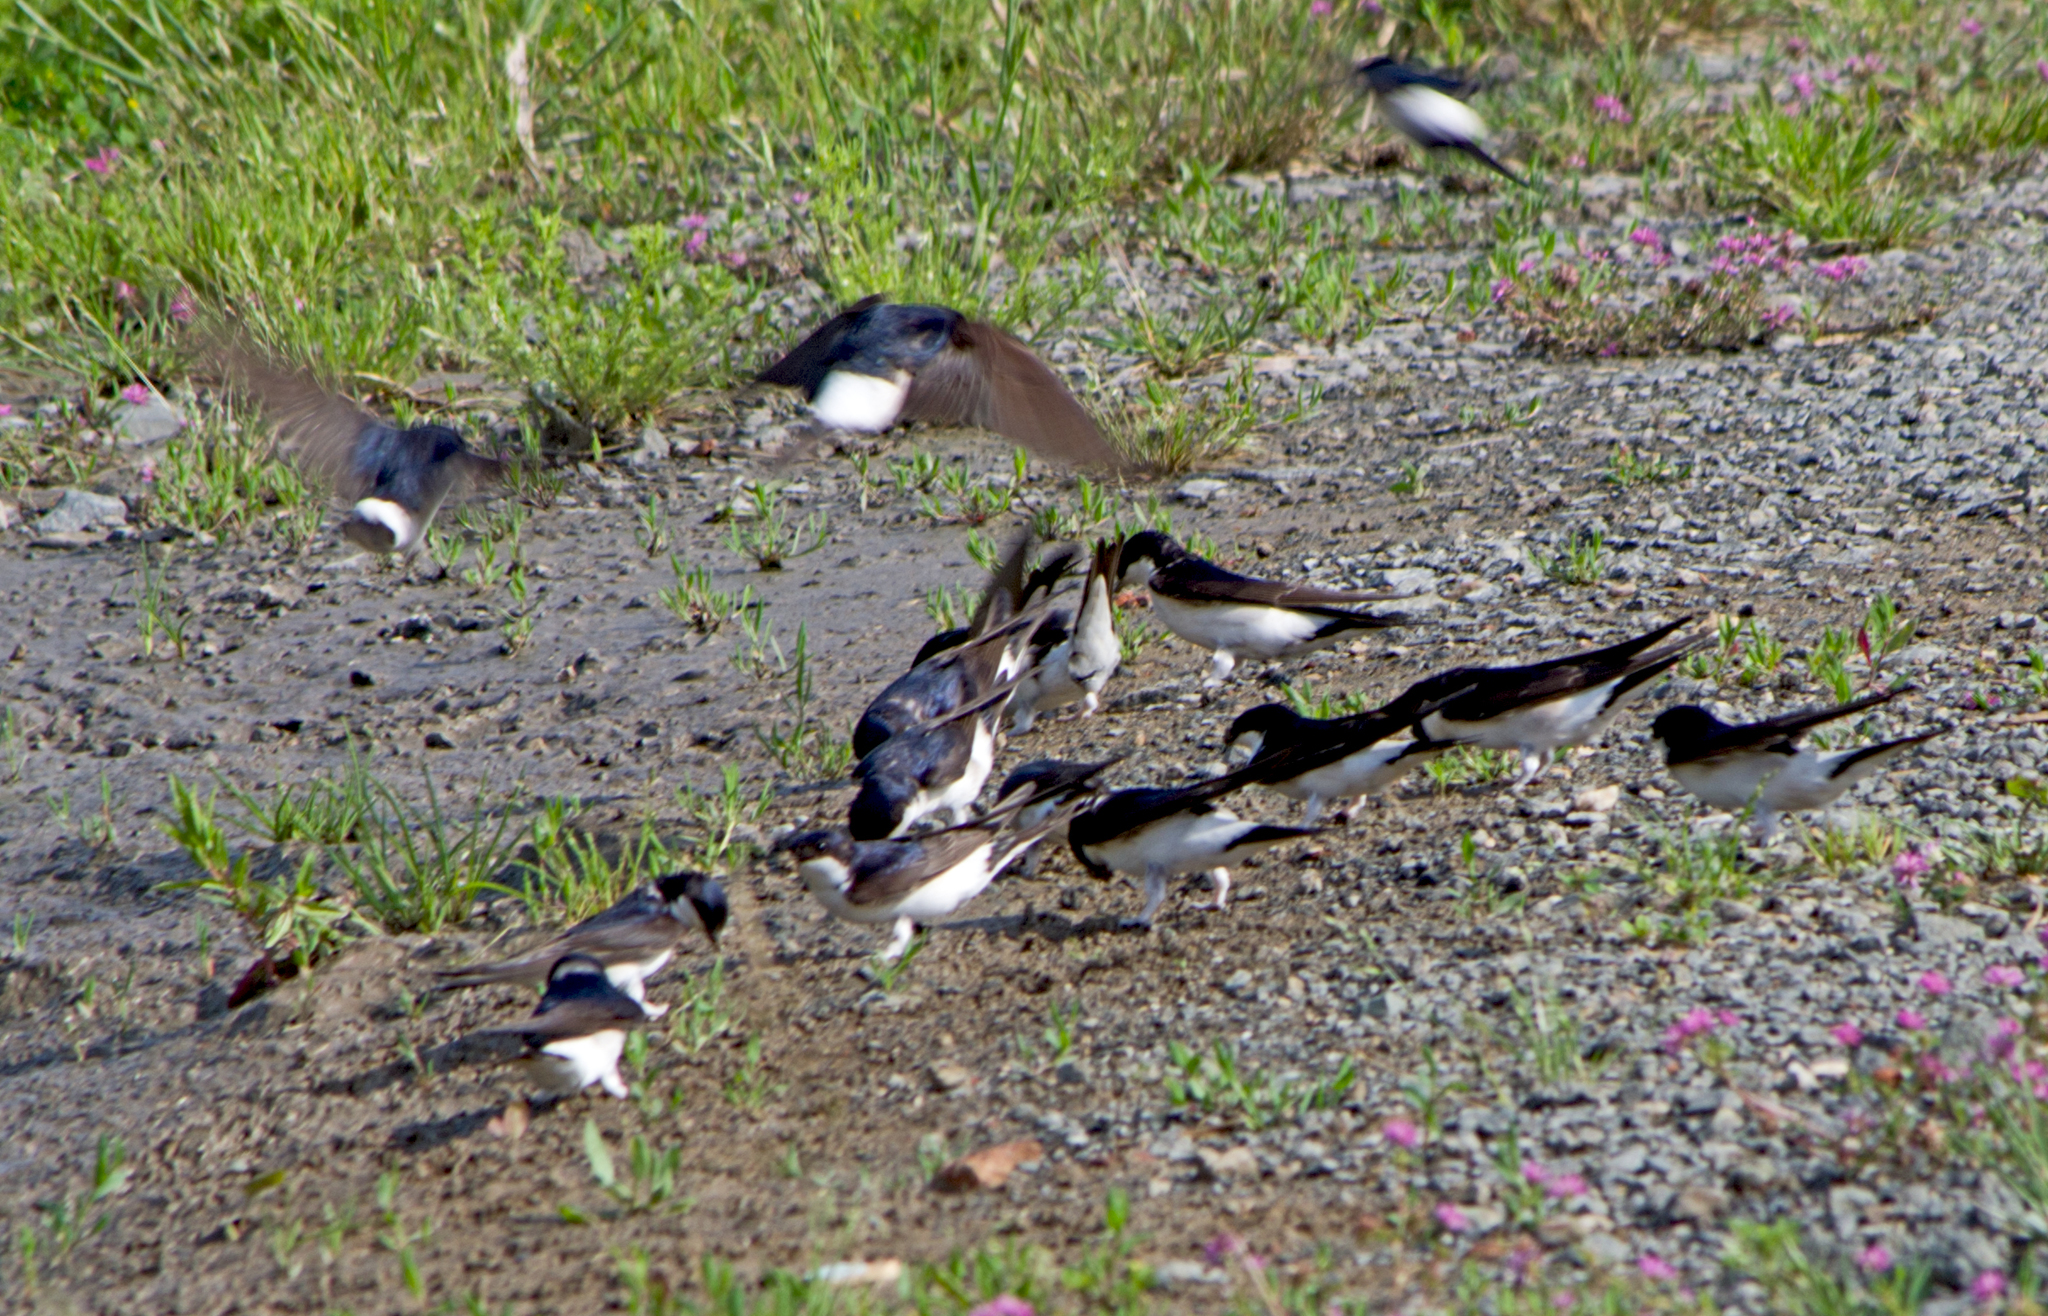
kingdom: Animalia
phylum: Chordata
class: Aves
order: Passeriformes
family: Hirundinidae
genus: Delichon
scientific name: Delichon urbicum
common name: Common house martin
